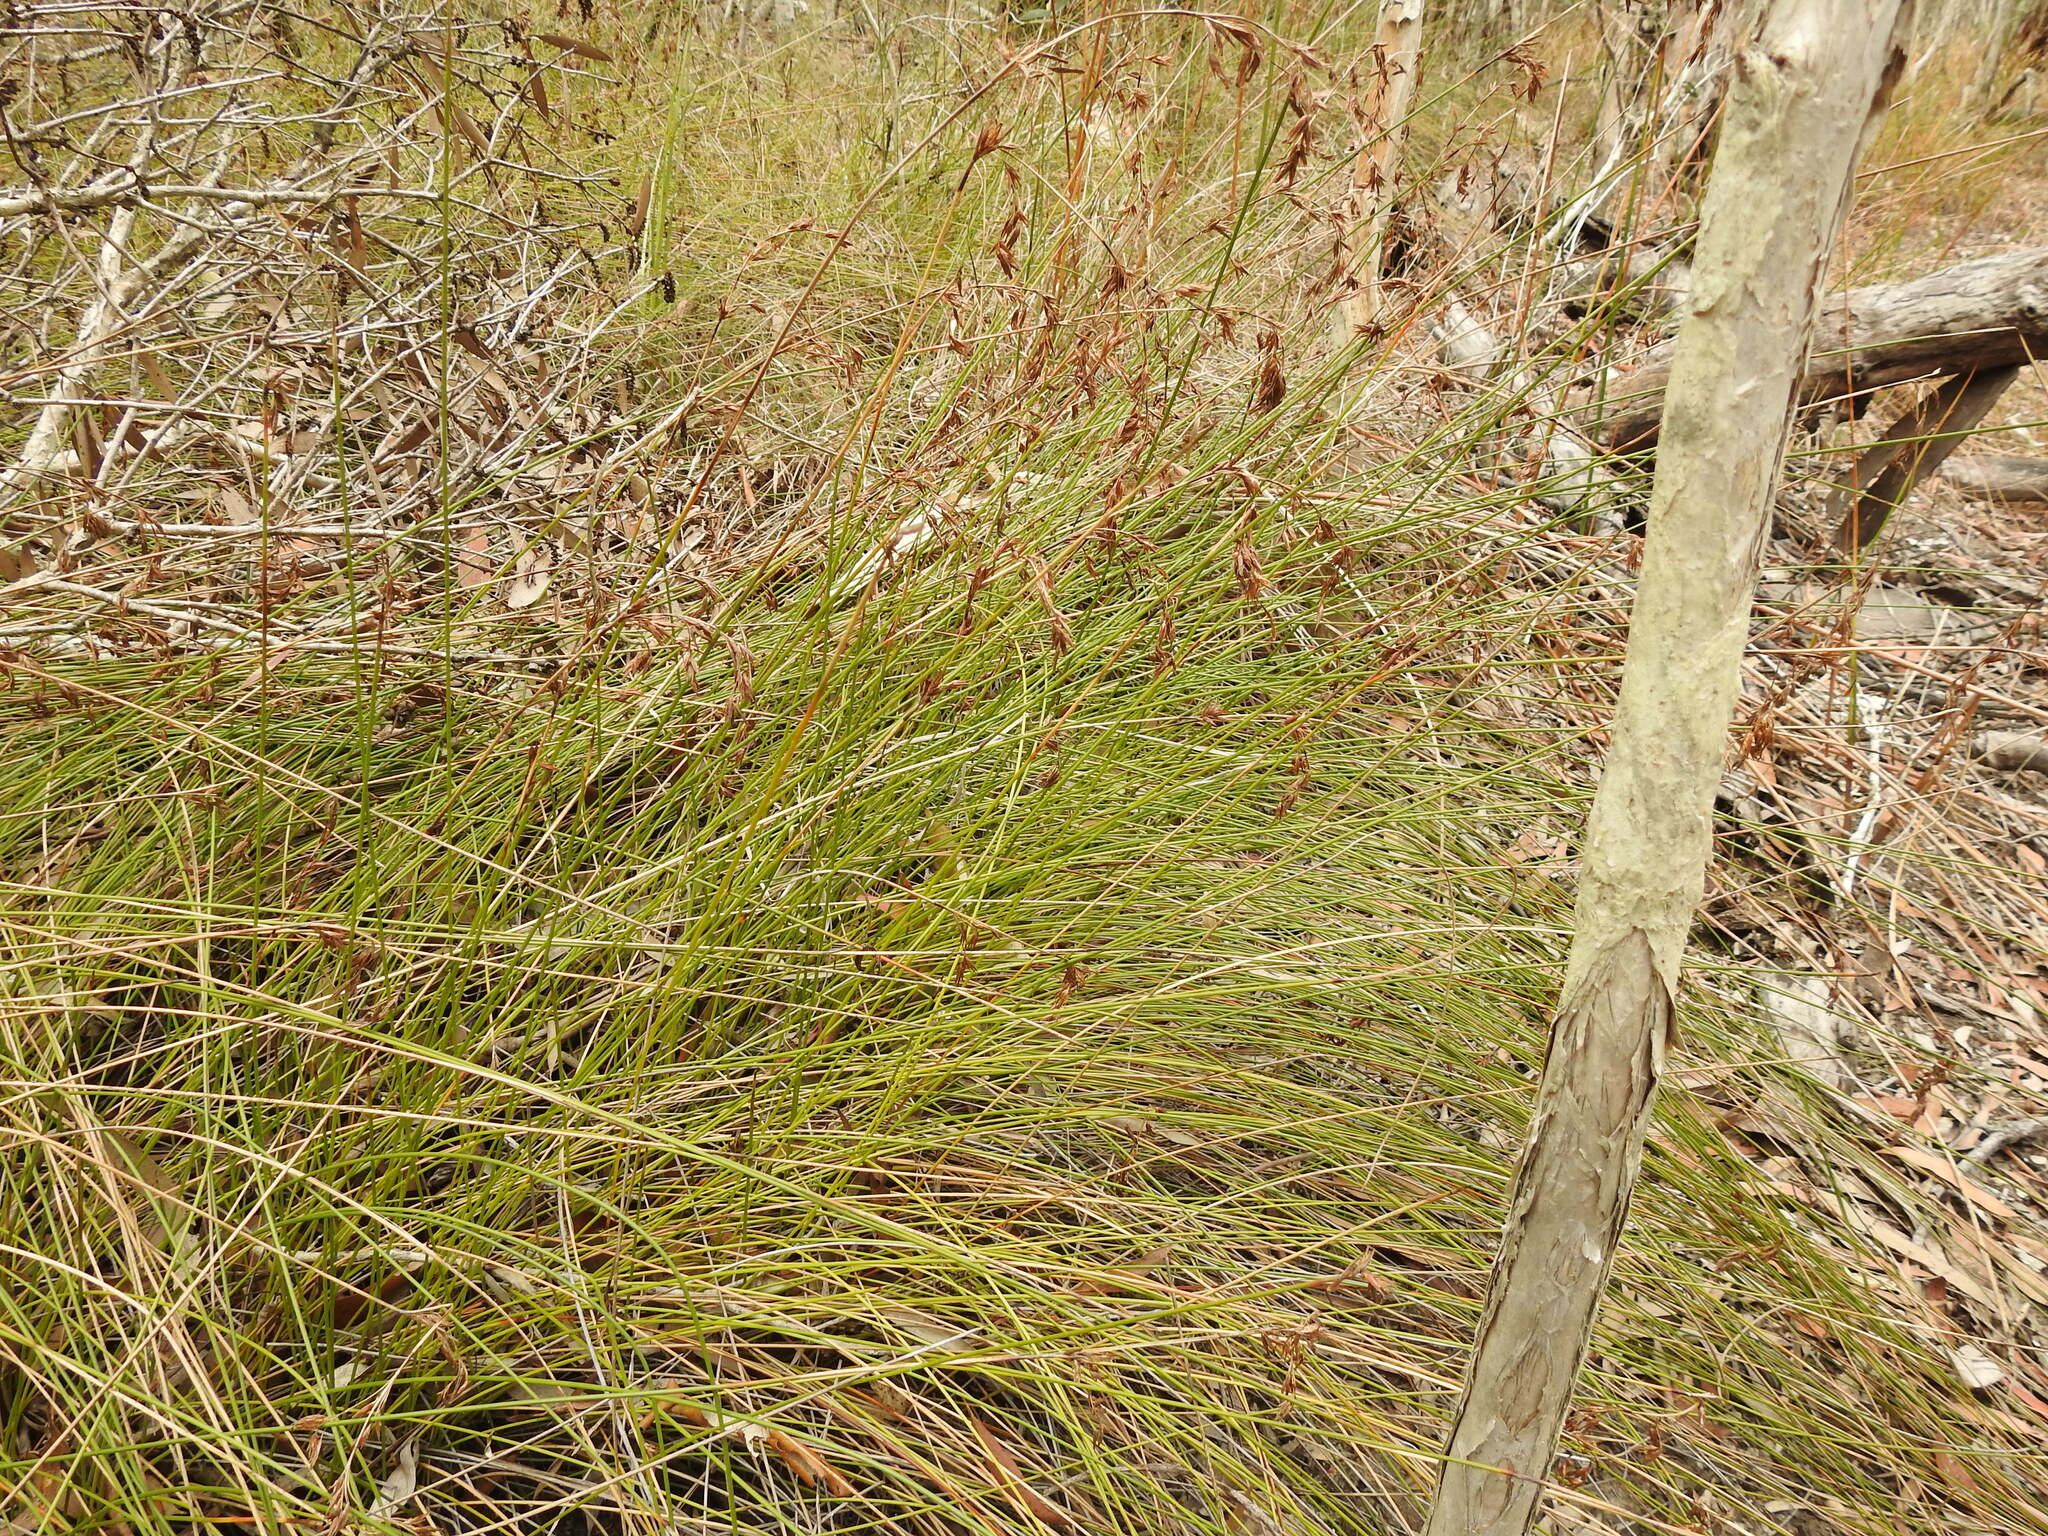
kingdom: Plantae
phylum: Tracheophyta
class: Liliopsida
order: Poales
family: Cyperaceae
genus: Schoenus
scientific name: Schoenus brevifolius
